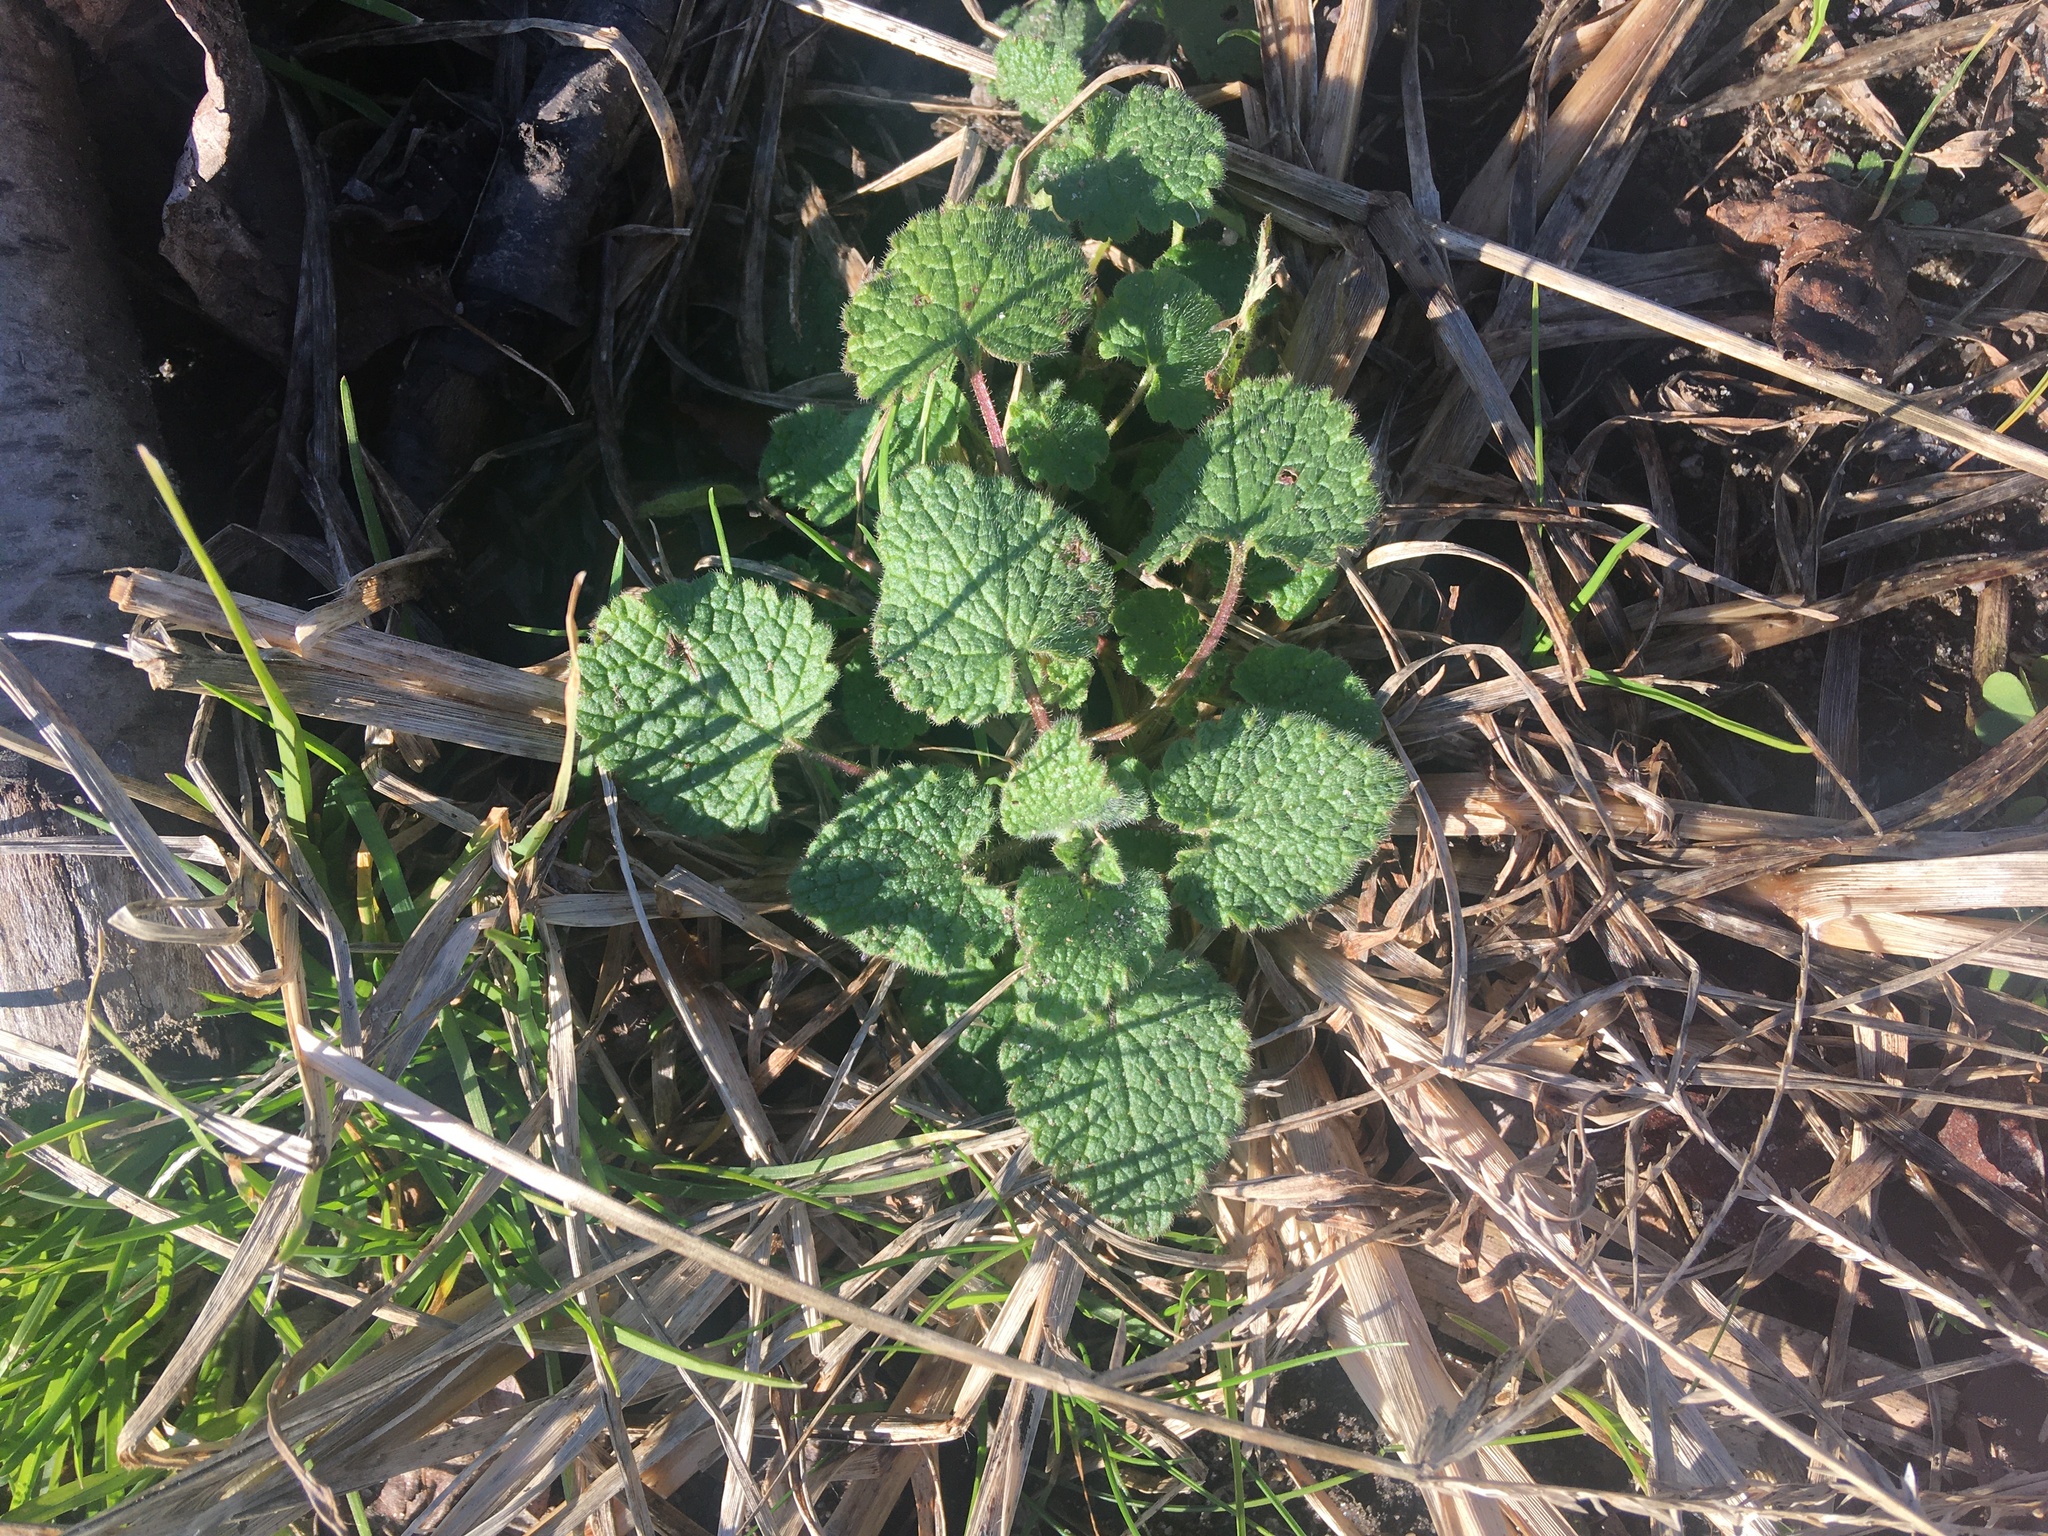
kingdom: Plantae
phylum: Tracheophyta
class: Magnoliopsida
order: Lamiales
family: Lamiaceae
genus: Lamium
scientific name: Lamium purpureum
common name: Red dead-nettle
